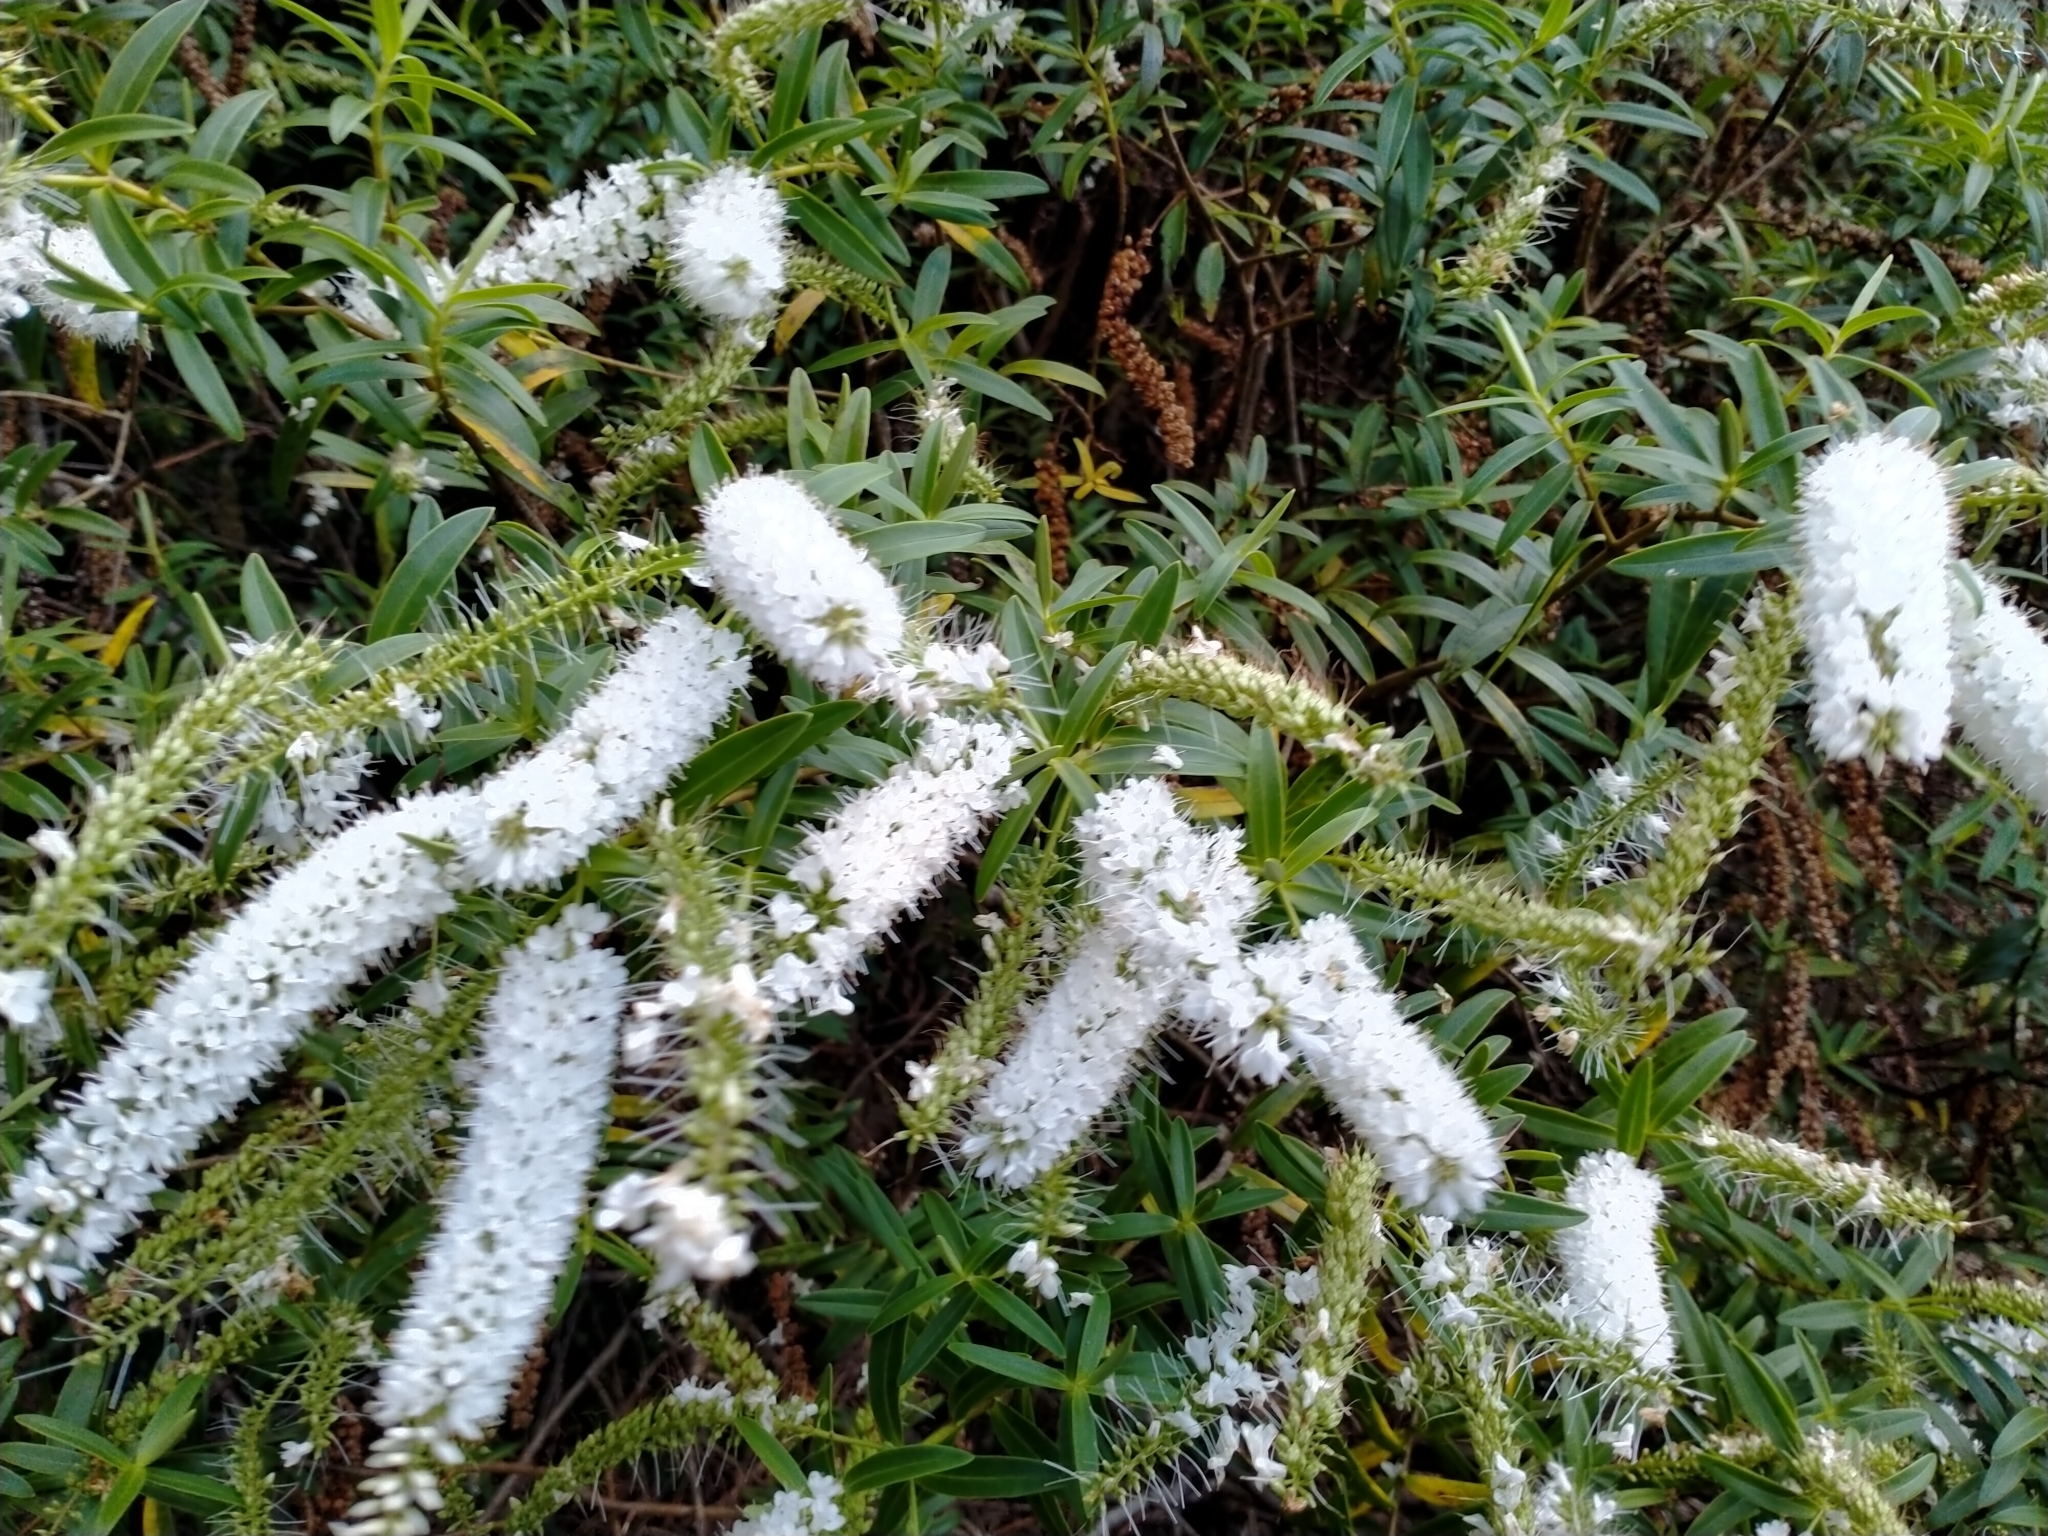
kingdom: Plantae
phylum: Tracheophyta
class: Magnoliopsida
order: Lamiales
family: Plantaginaceae
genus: Veronica
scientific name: Veronica leiophylla
